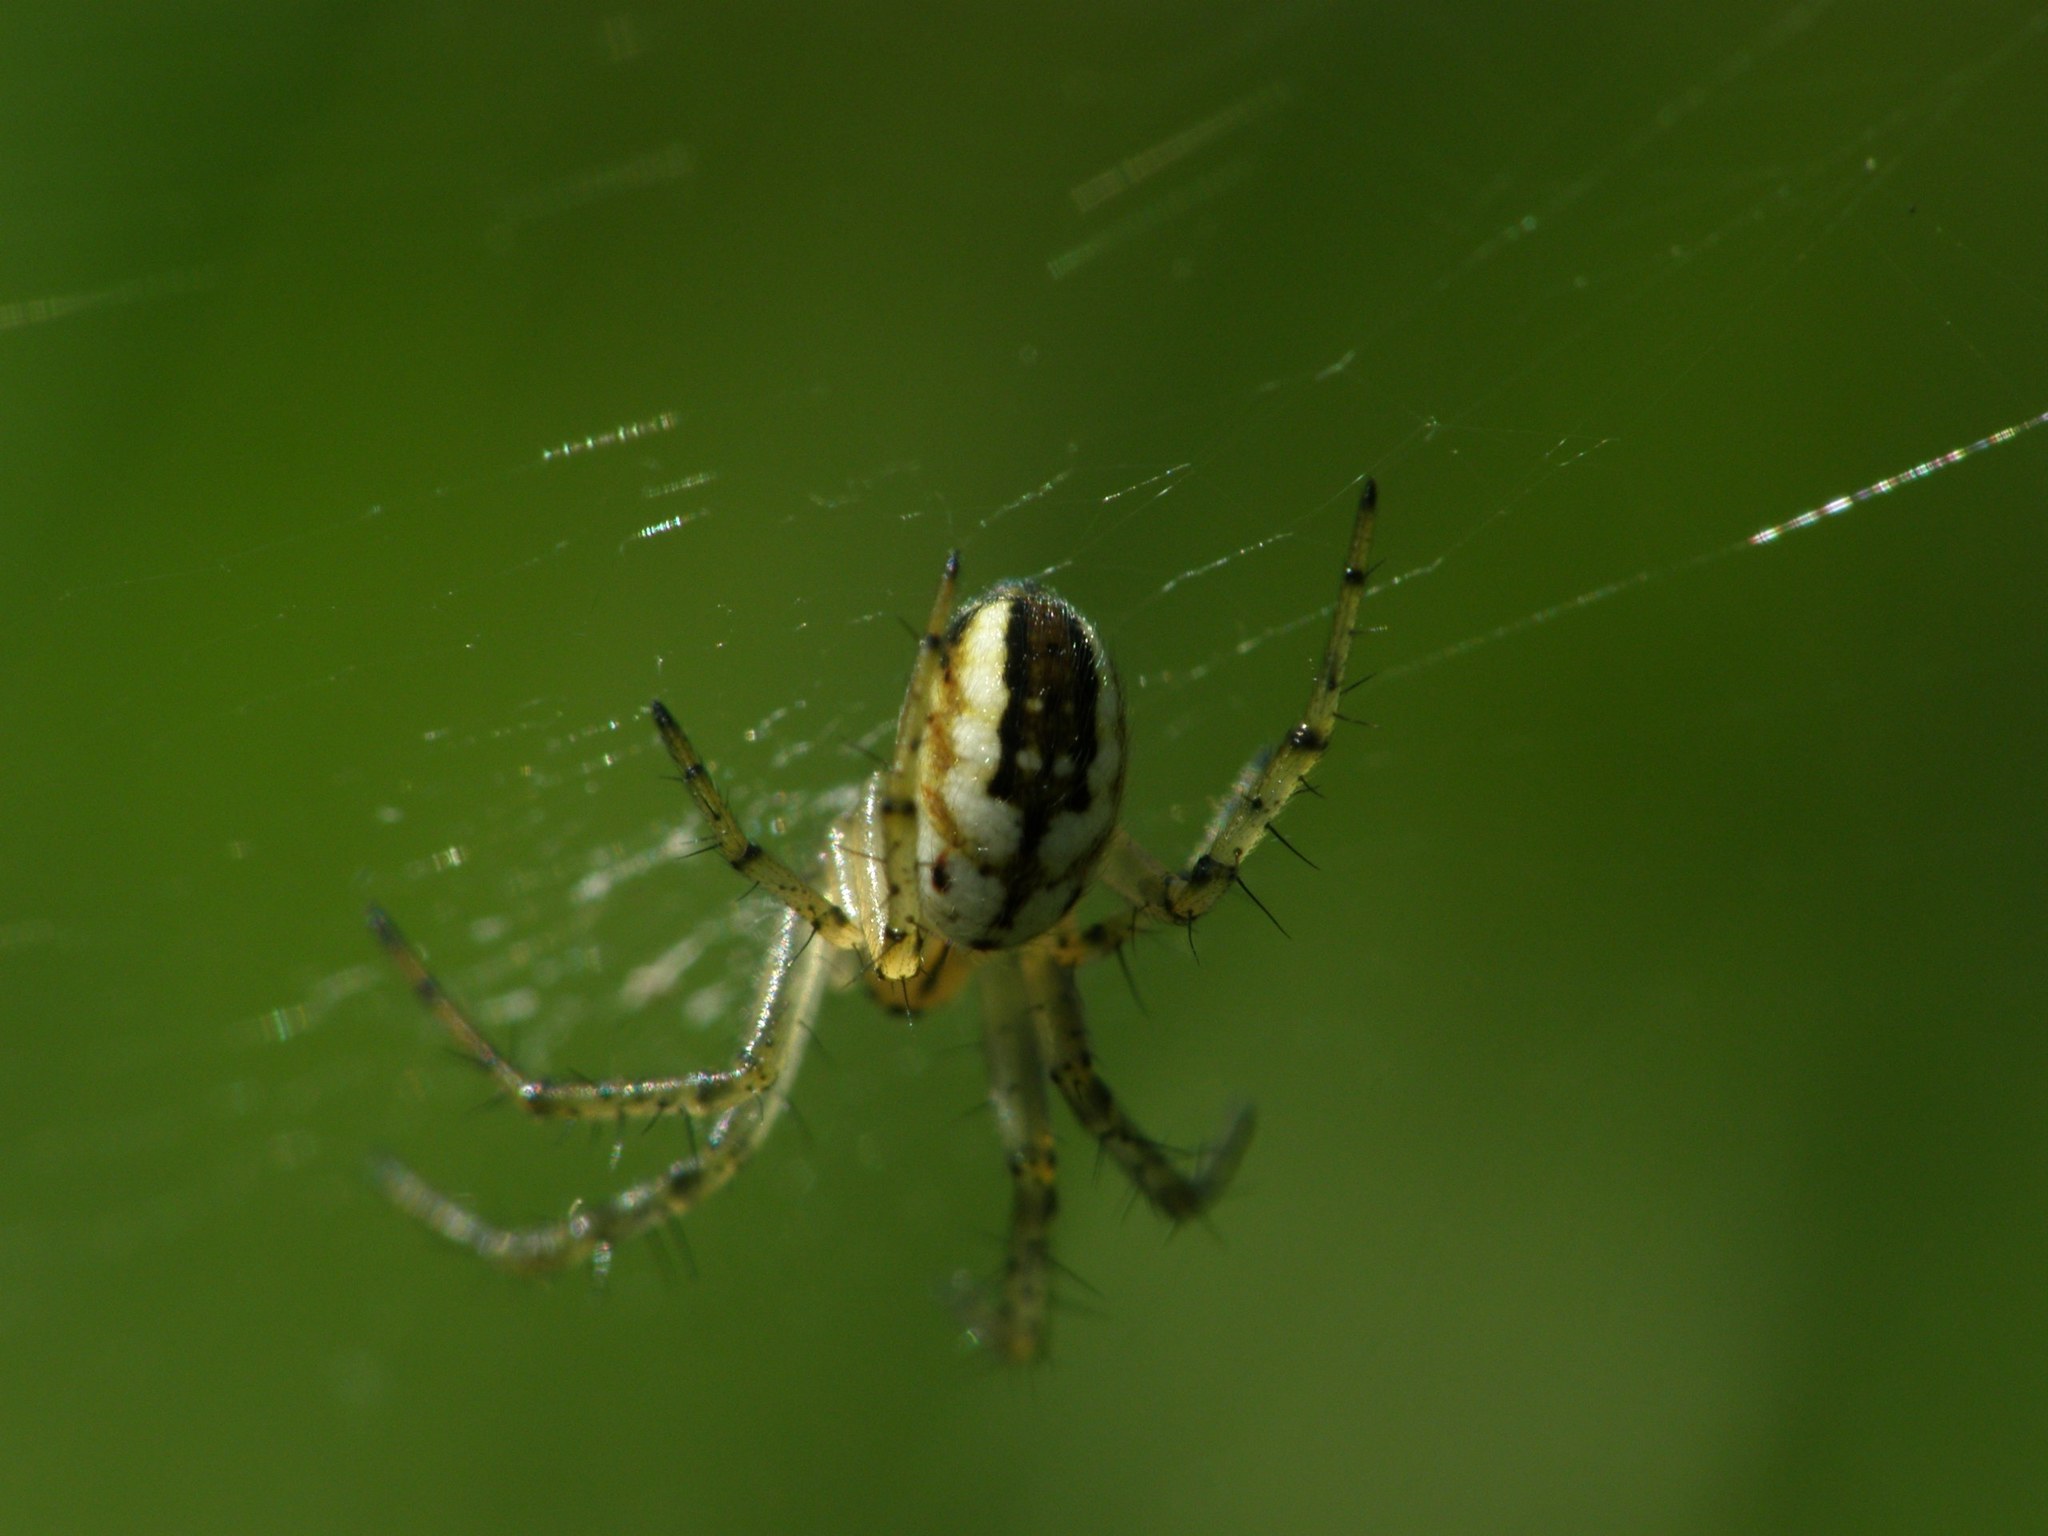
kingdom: Animalia
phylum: Arthropoda
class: Arachnida
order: Araneae
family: Araneidae
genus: Mangora
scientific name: Mangora acalypha
